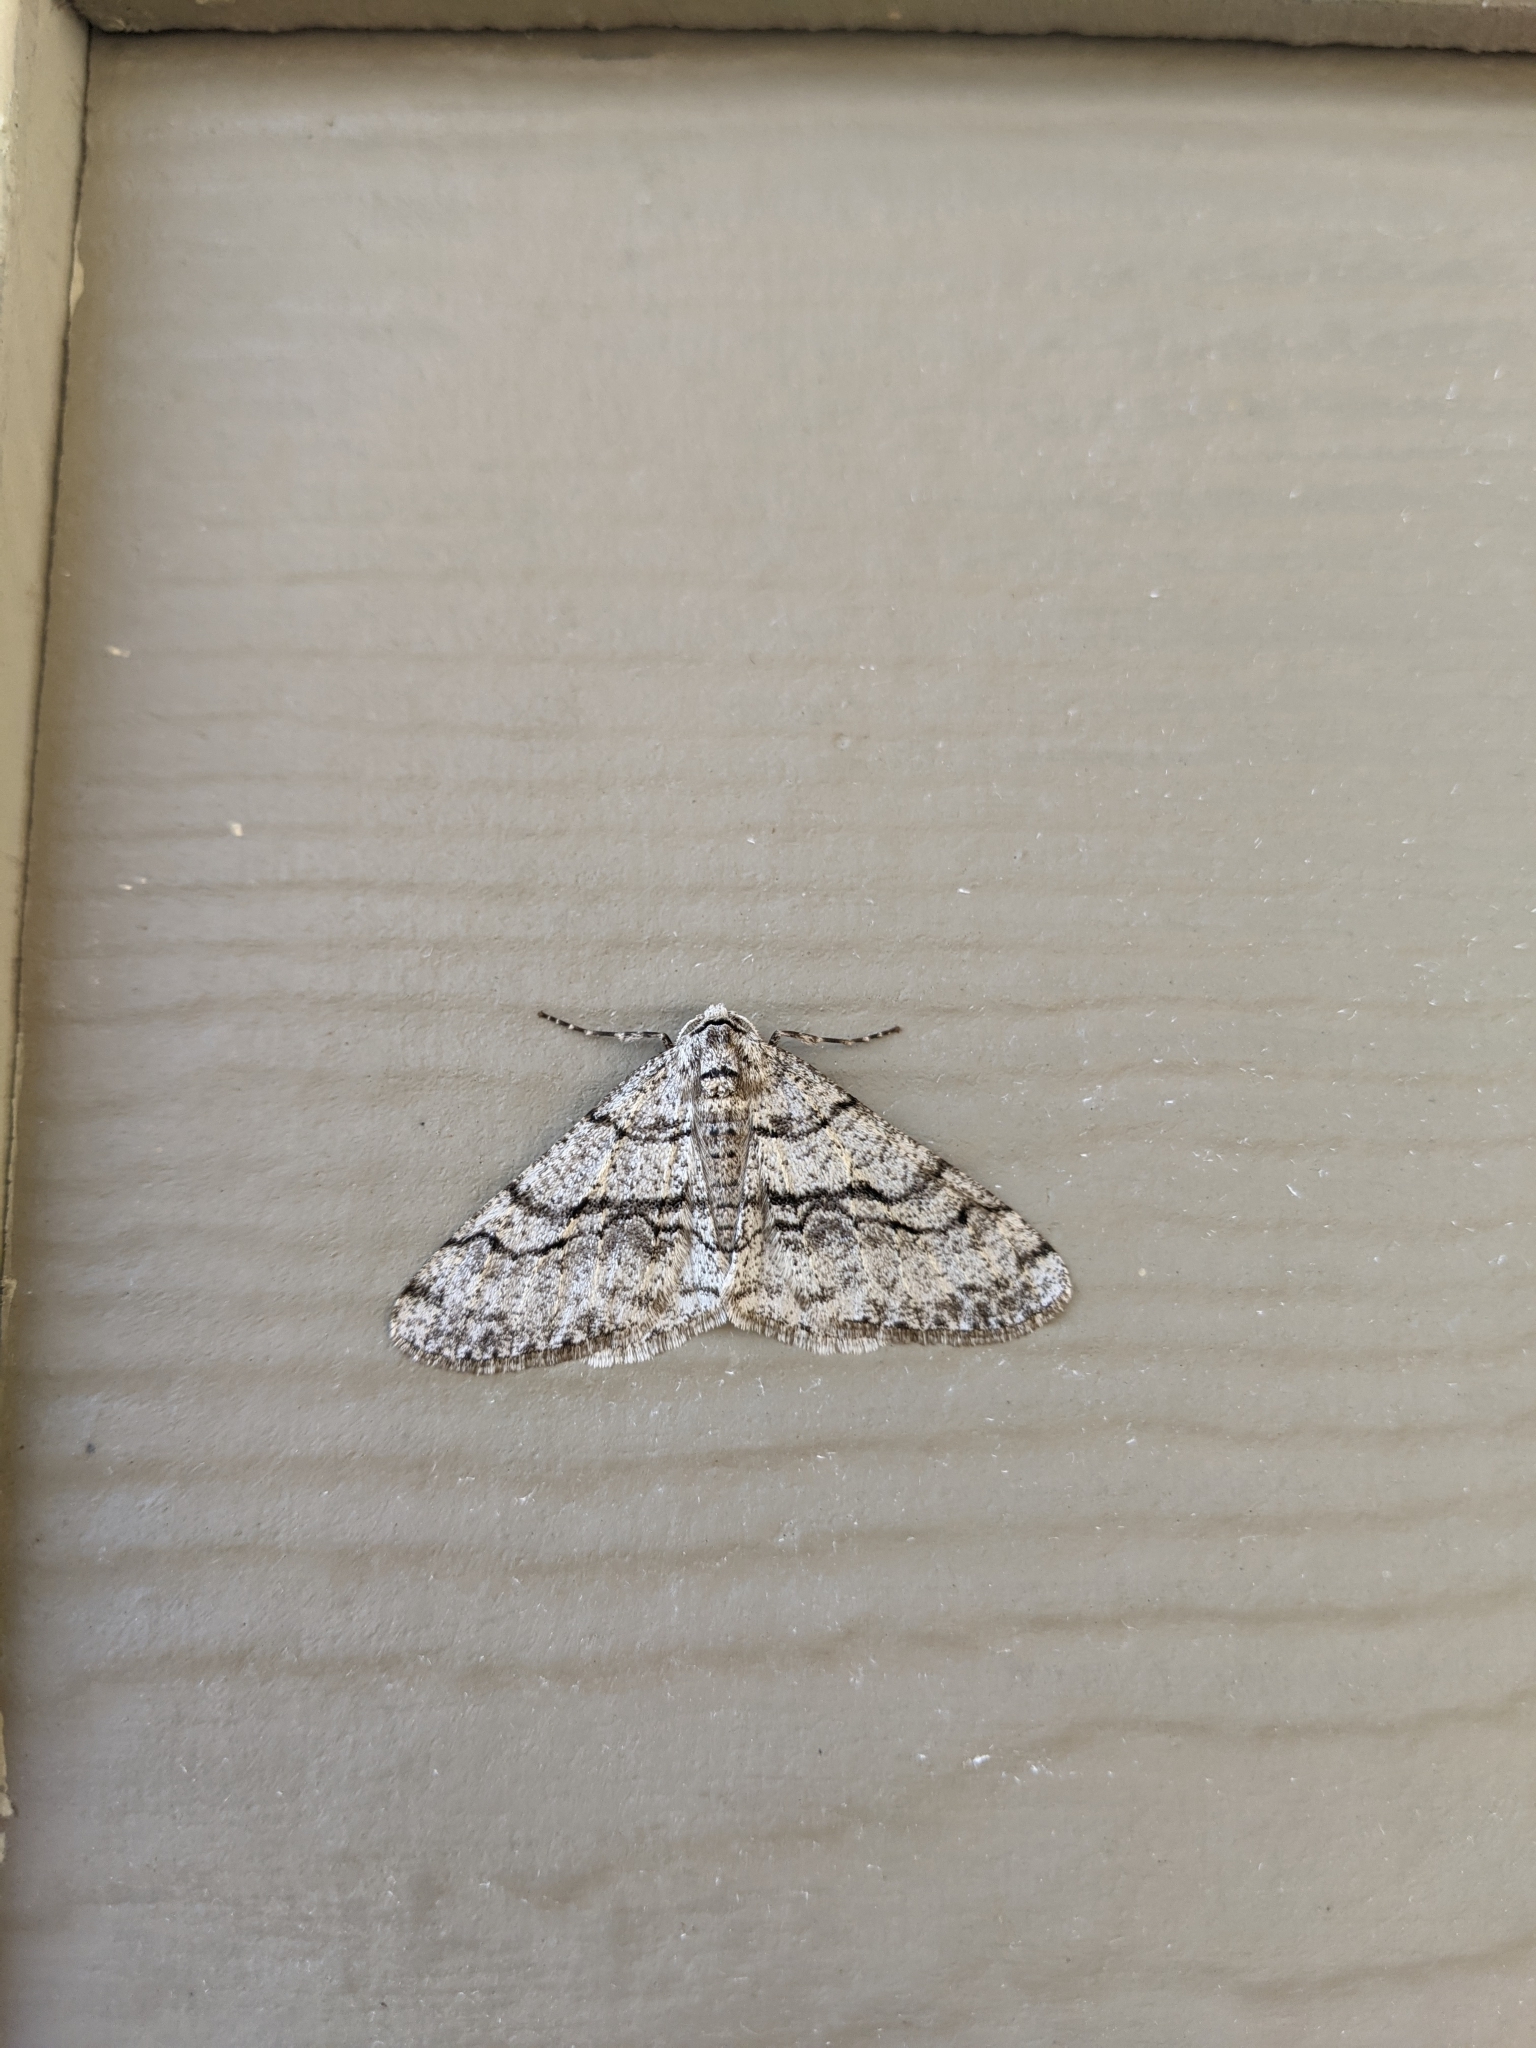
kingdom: Animalia
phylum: Arthropoda
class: Insecta
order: Lepidoptera
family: Geometridae
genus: Phigalia
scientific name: Phigalia titea
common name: Spiny looper
